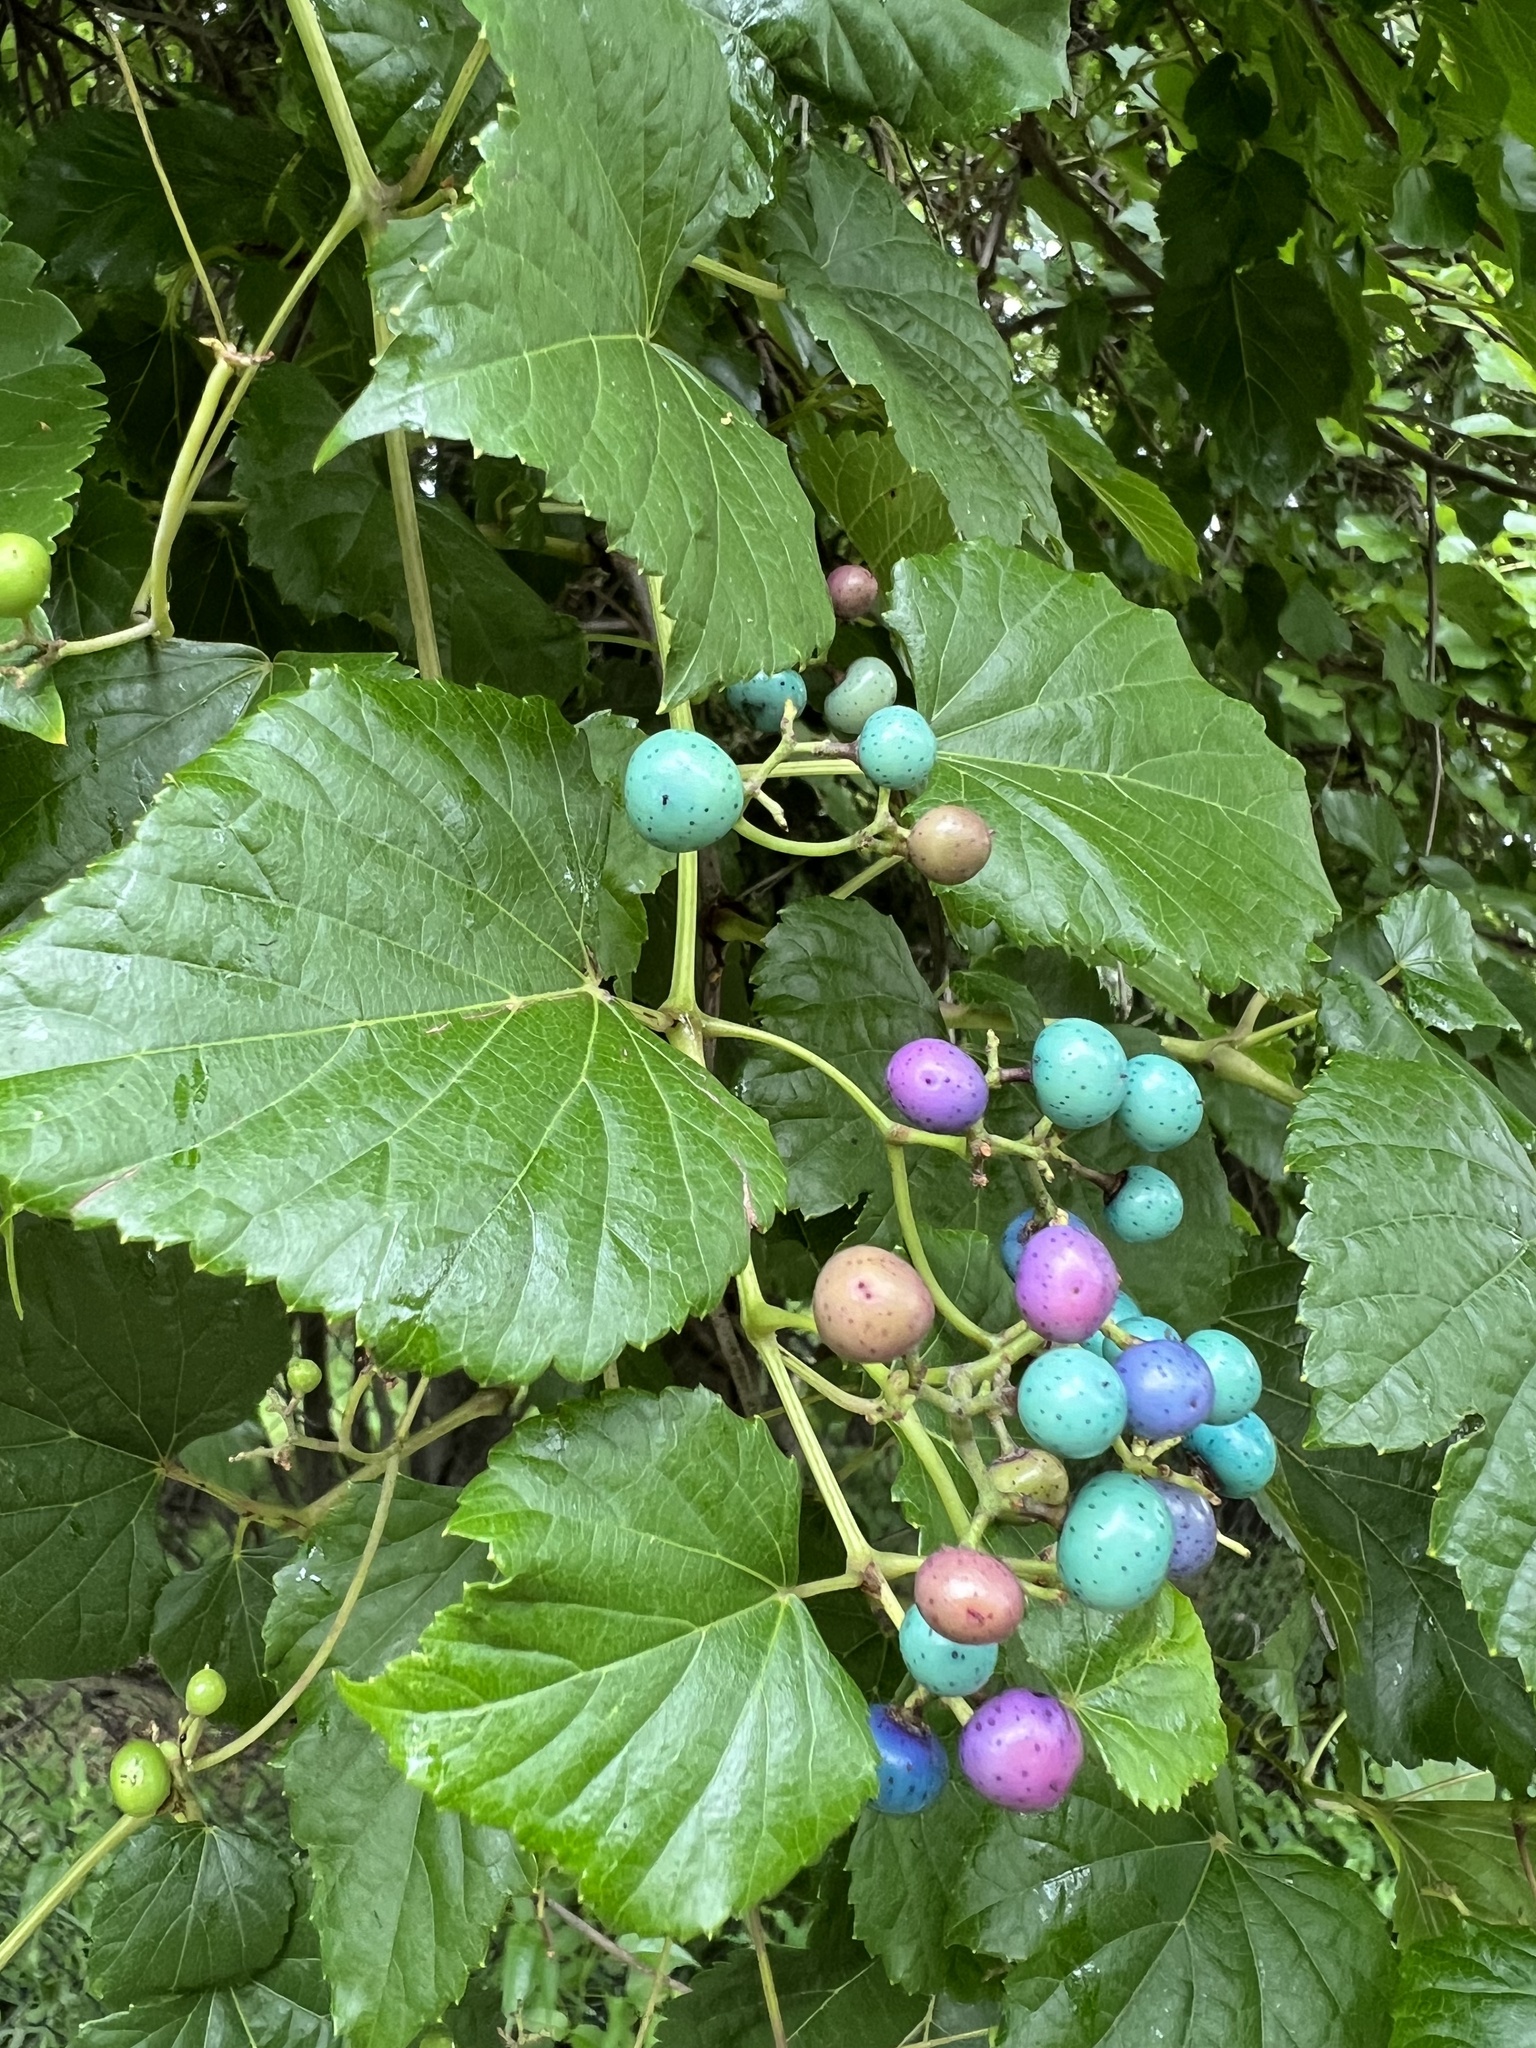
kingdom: Plantae
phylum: Tracheophyta
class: Magnoliopsida
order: Vitales
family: Vitaceae
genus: Ampelopsis
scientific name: Ampelopsis glandulosa
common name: Amur peppervine
